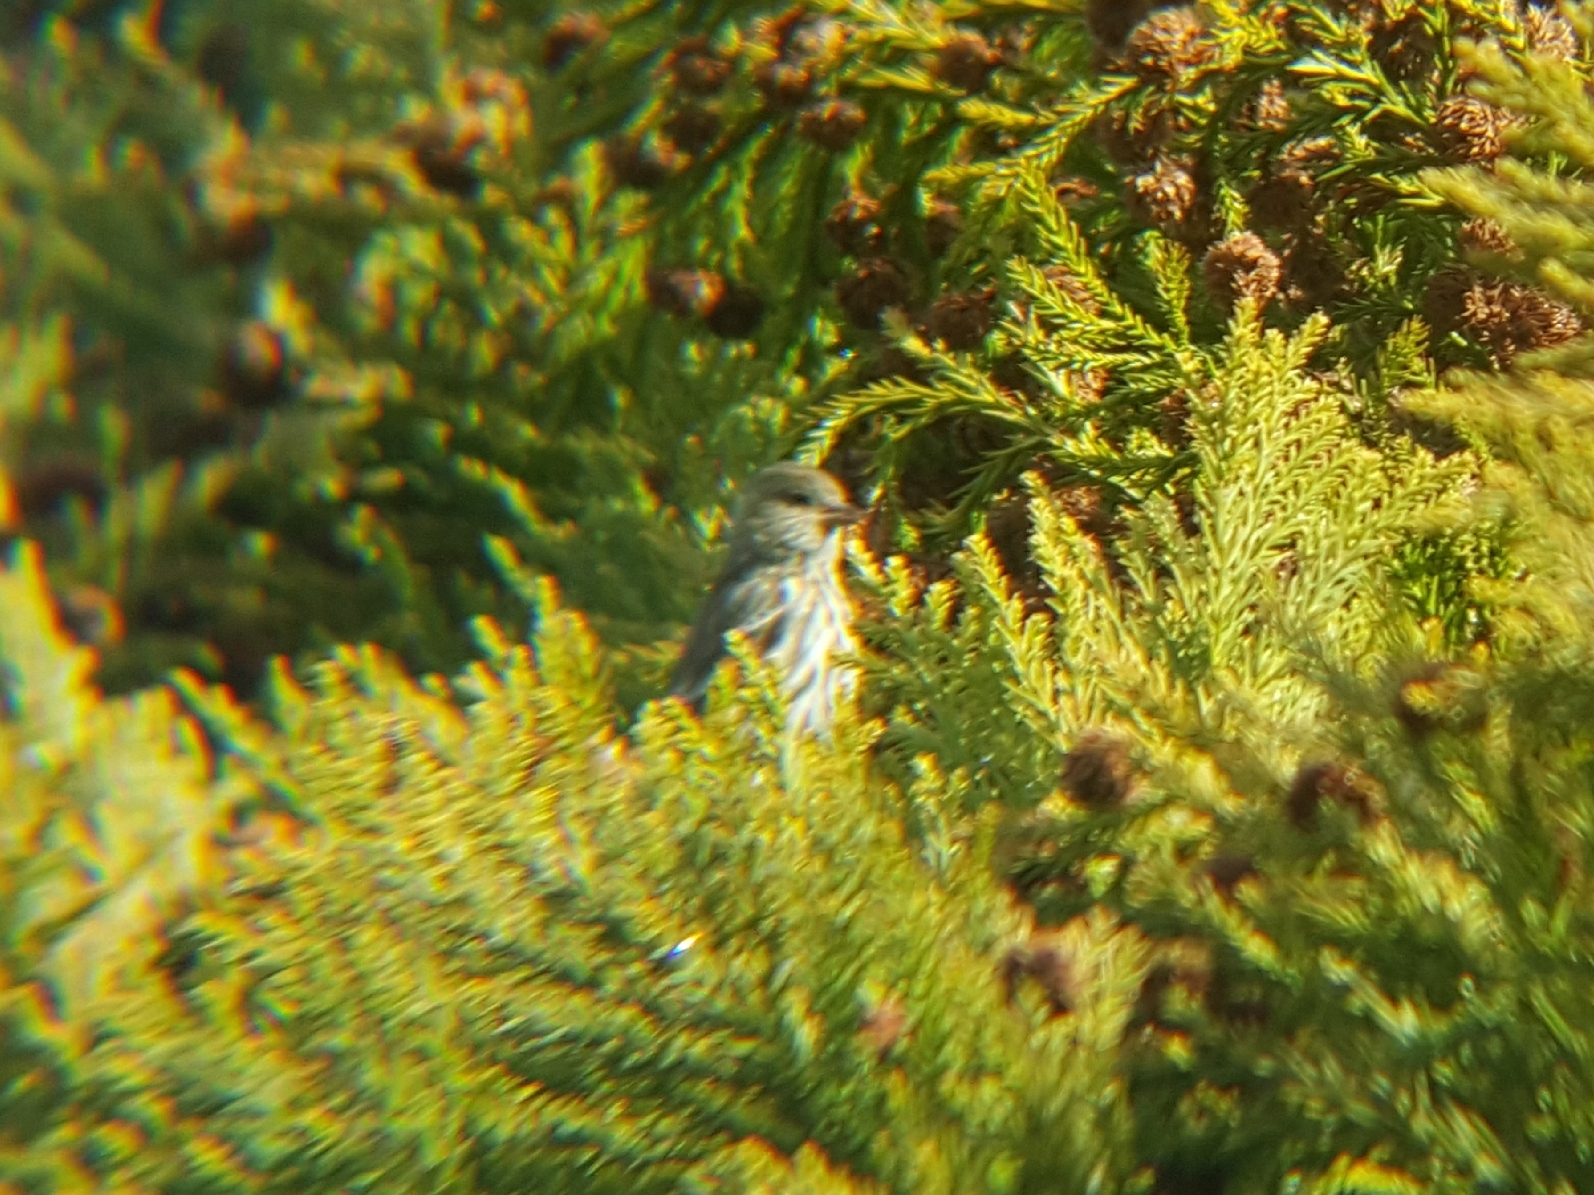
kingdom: Animalia
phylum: Chordata
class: Aves
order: Passeriformes
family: Fringillidae
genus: Spinus
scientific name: Spinus pinus
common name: Pine siskin
